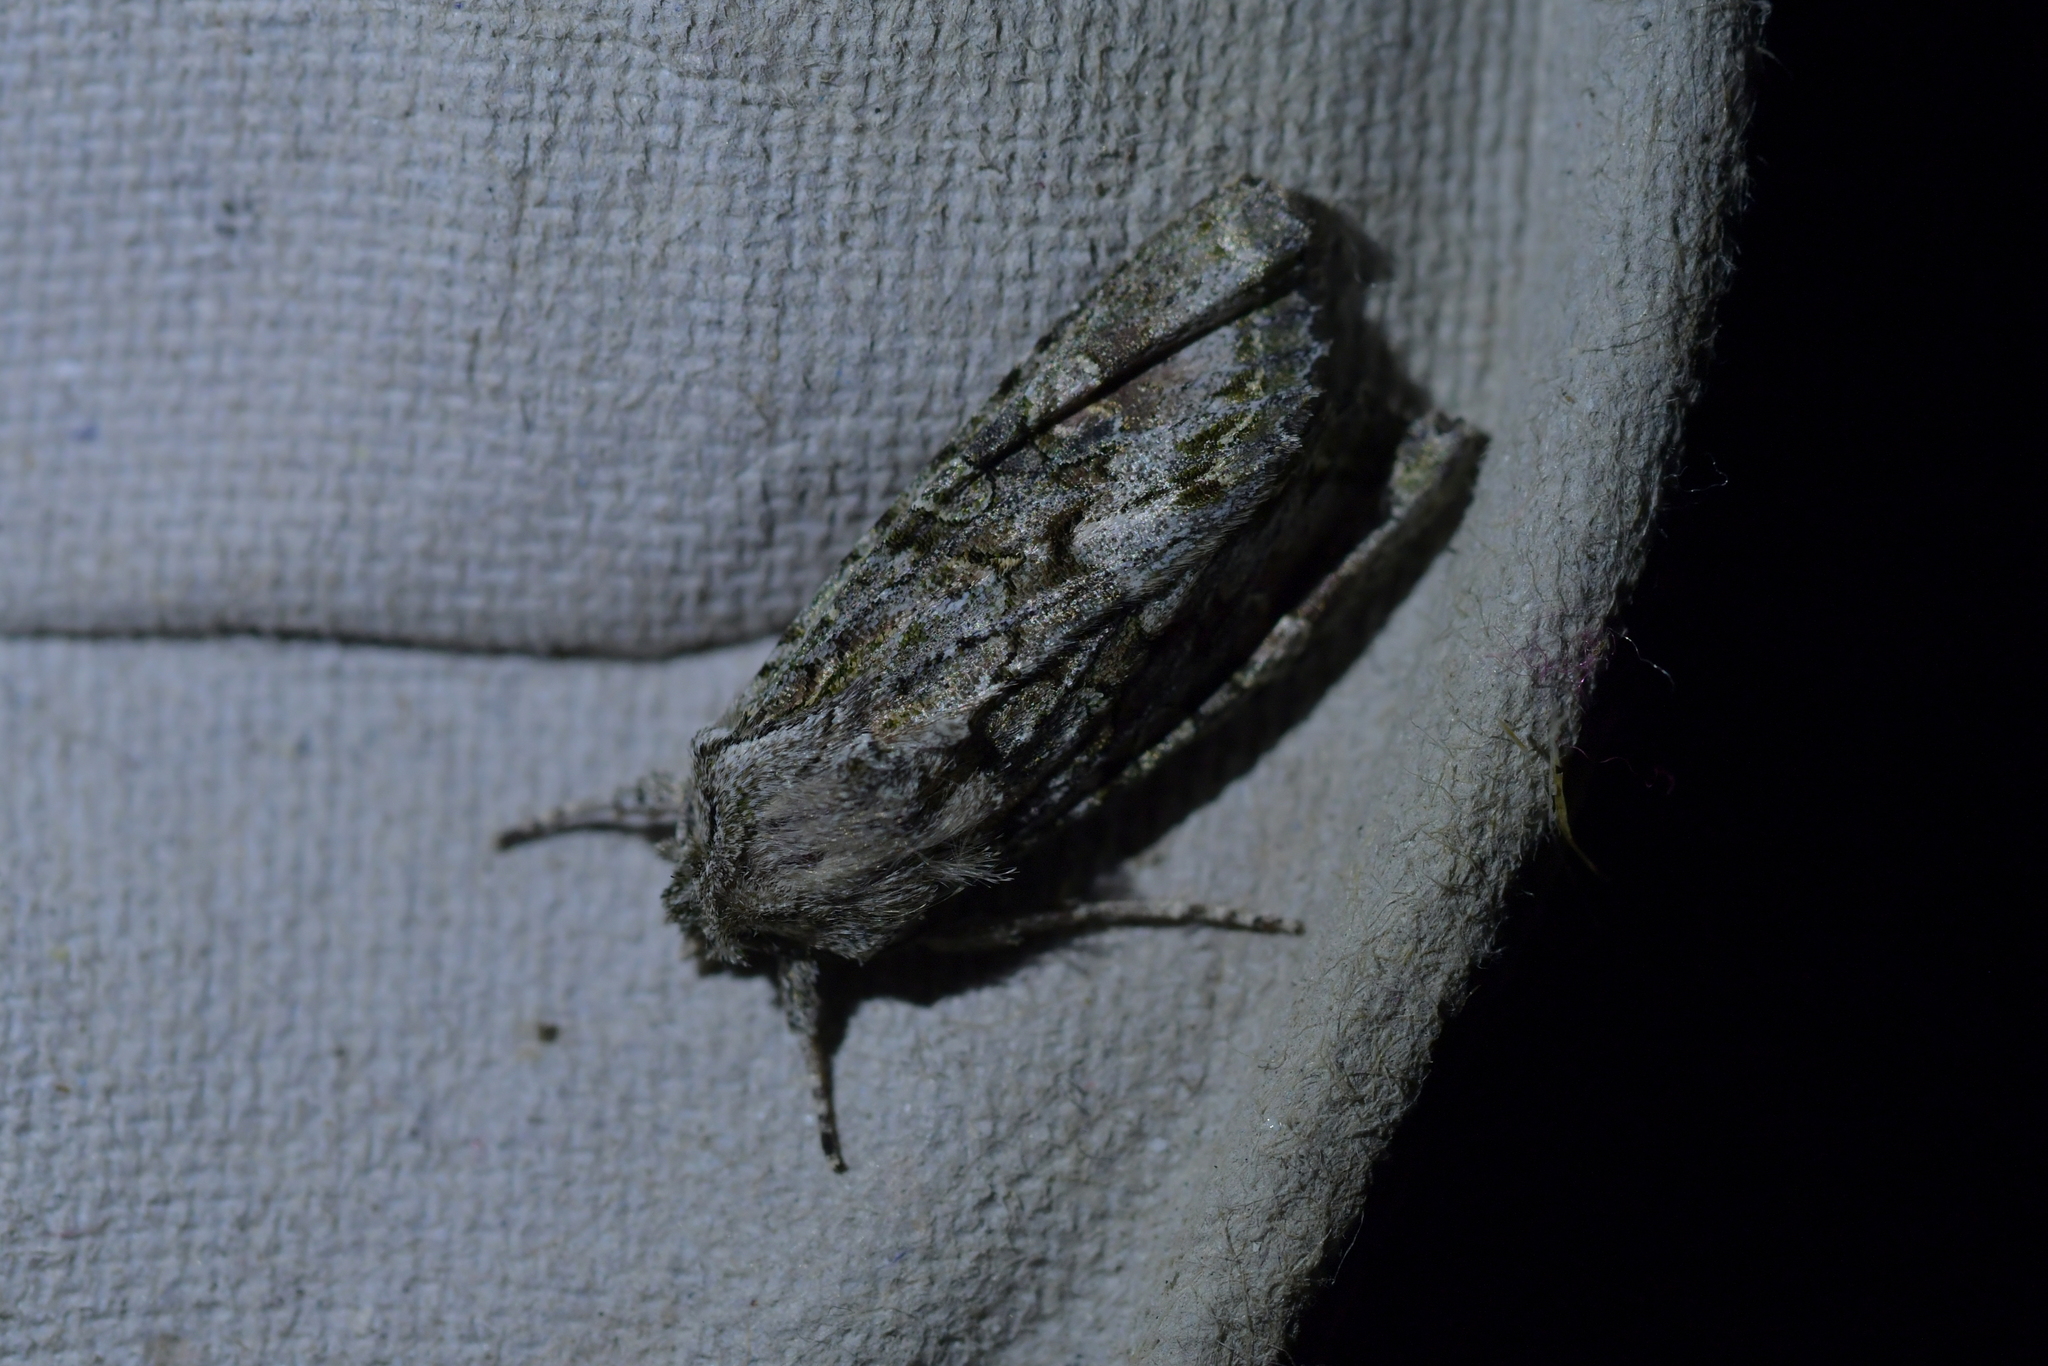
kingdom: Animalia
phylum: Arthropoda
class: Insecta
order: Lepidoptera
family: Noctuidae
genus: Ichneutica
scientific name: Ichneutica mutans
